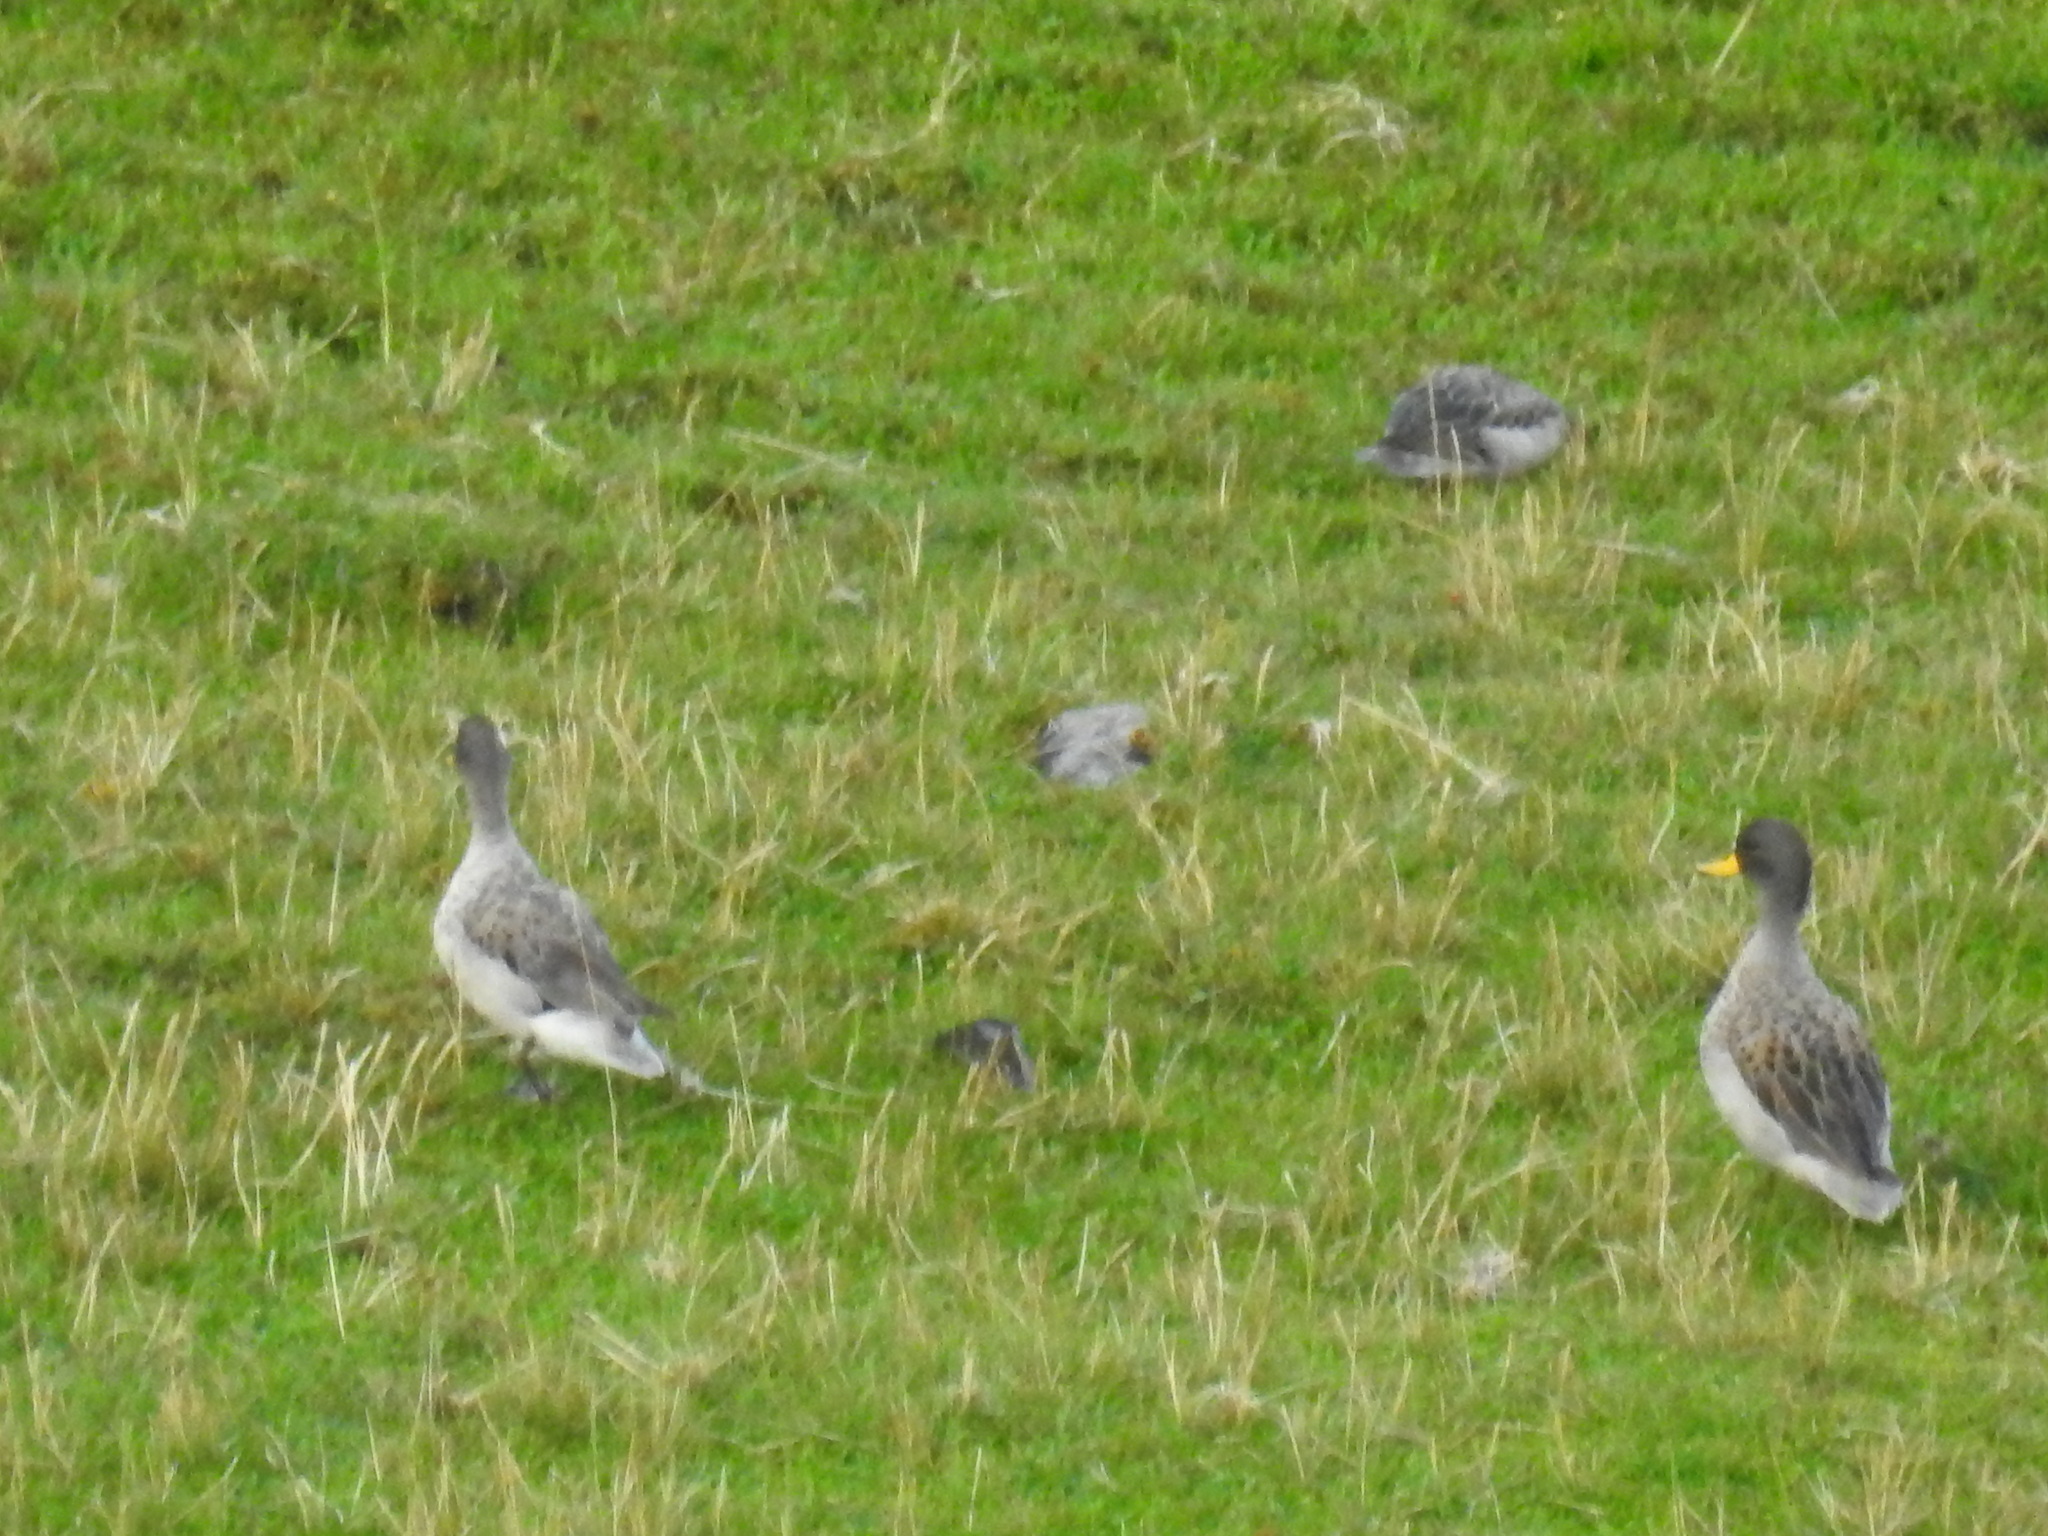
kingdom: Animalia
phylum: Chordata
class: Aves
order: Anseriformes
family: Anatidae
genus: Anas
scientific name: Anas flavirostris
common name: Yellow-billed teal
